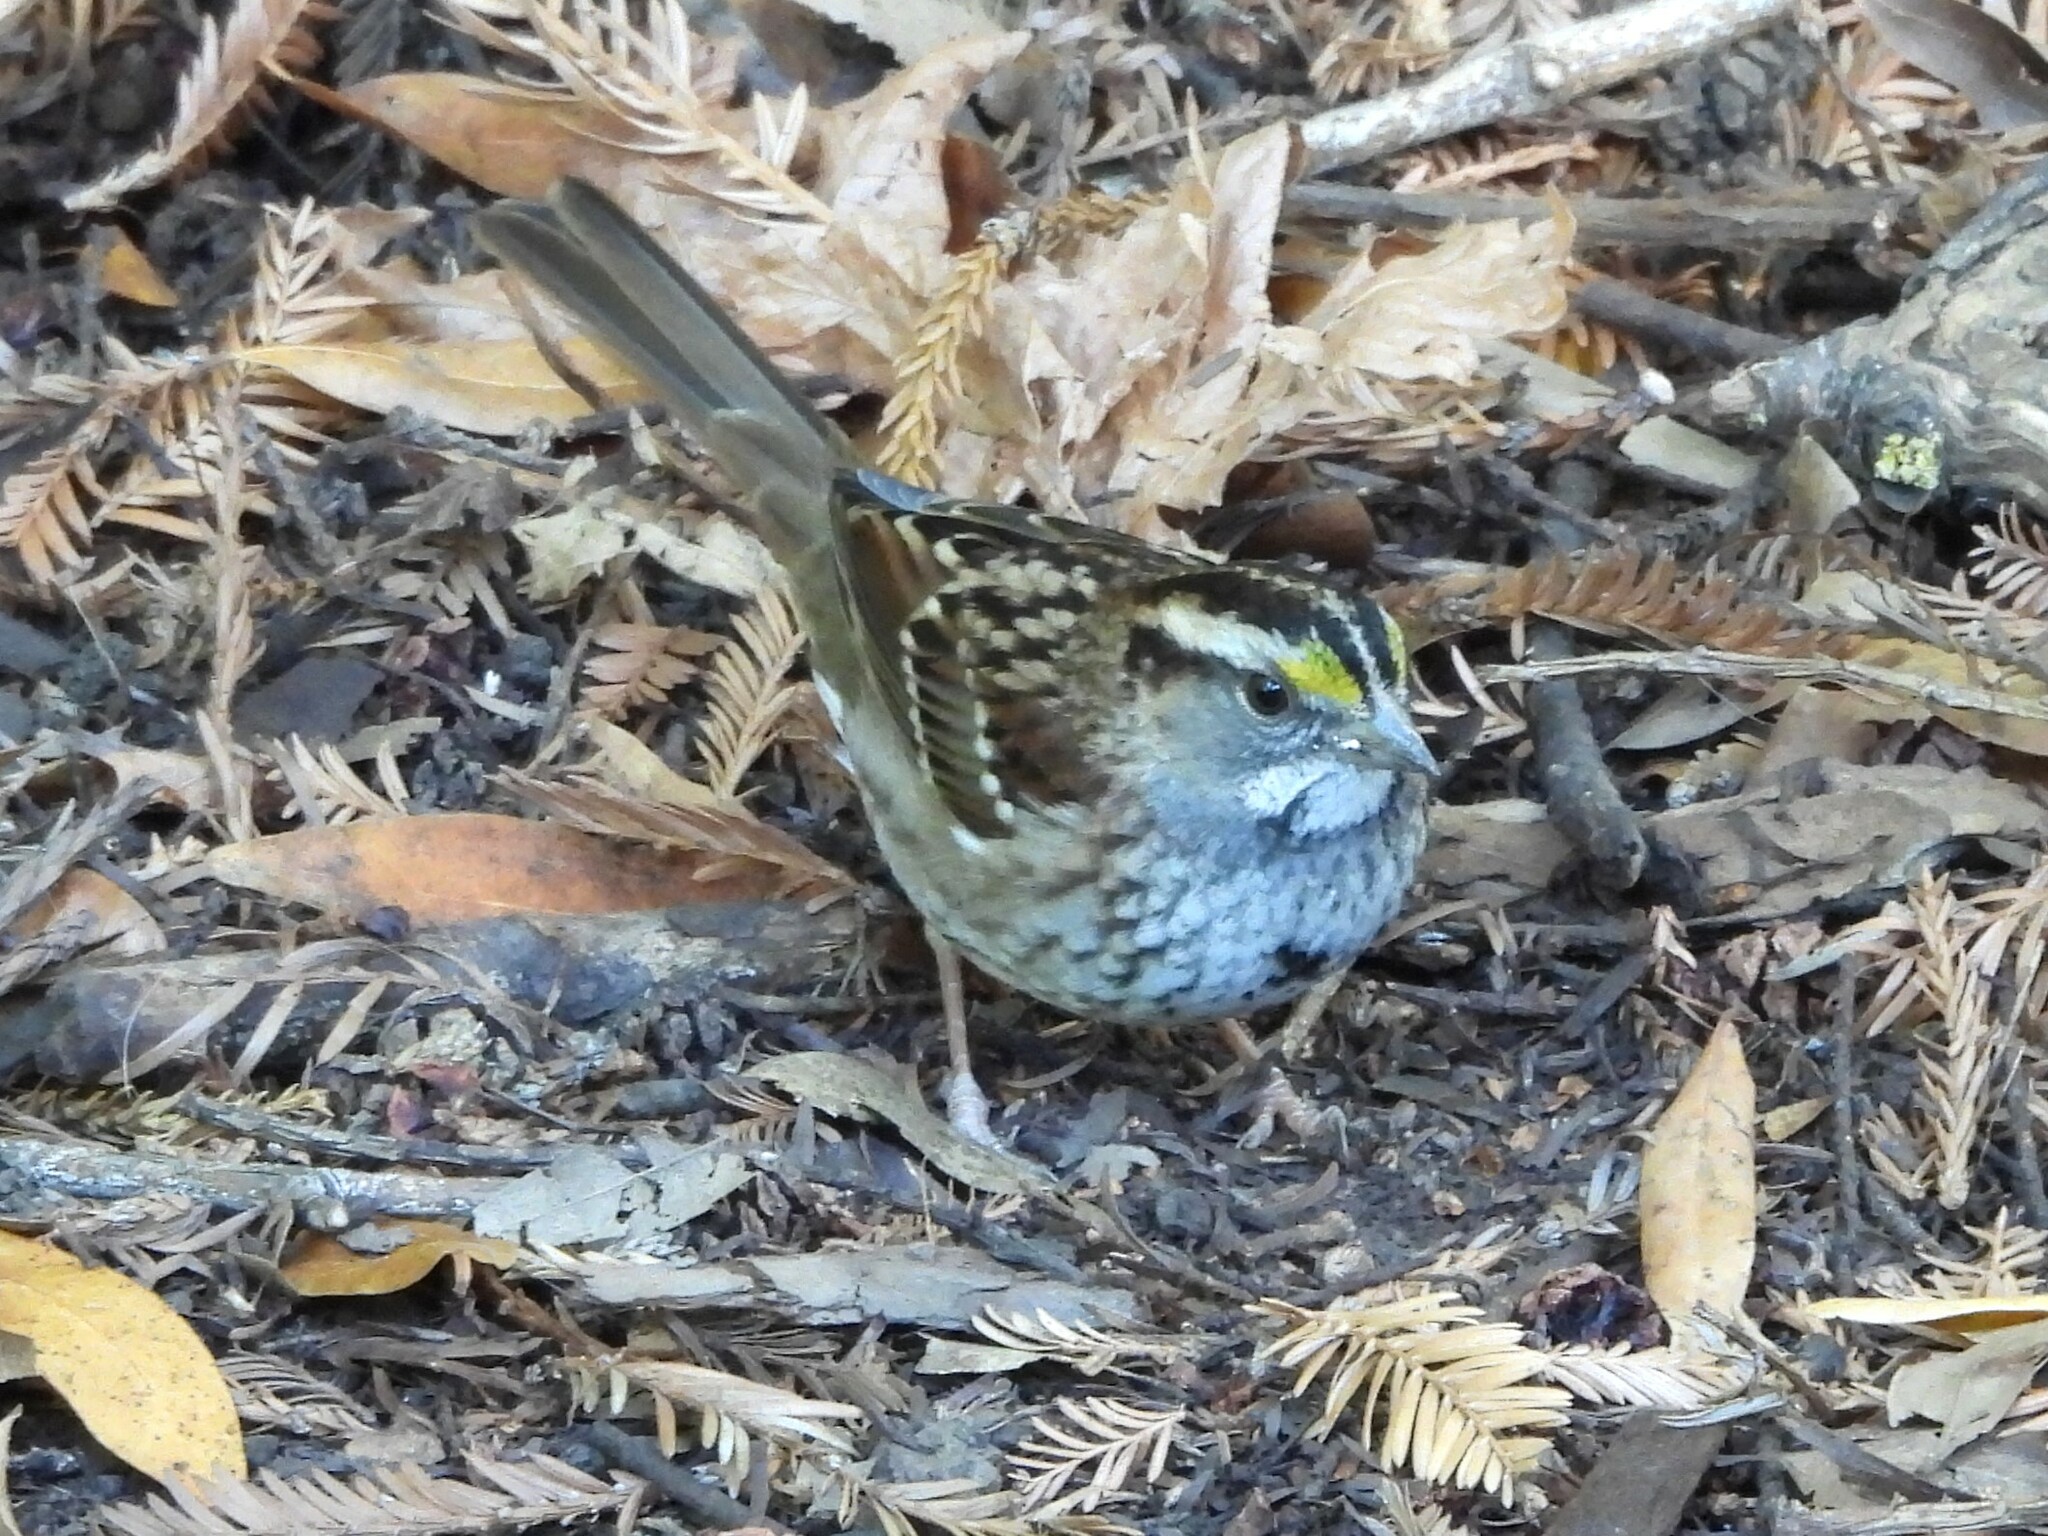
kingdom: Animalia
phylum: Chordata
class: Aves
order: Passeriformes
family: Passerellidae
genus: Zonotrichia
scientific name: Zonotrichia albicollis
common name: White-throated sparrow
